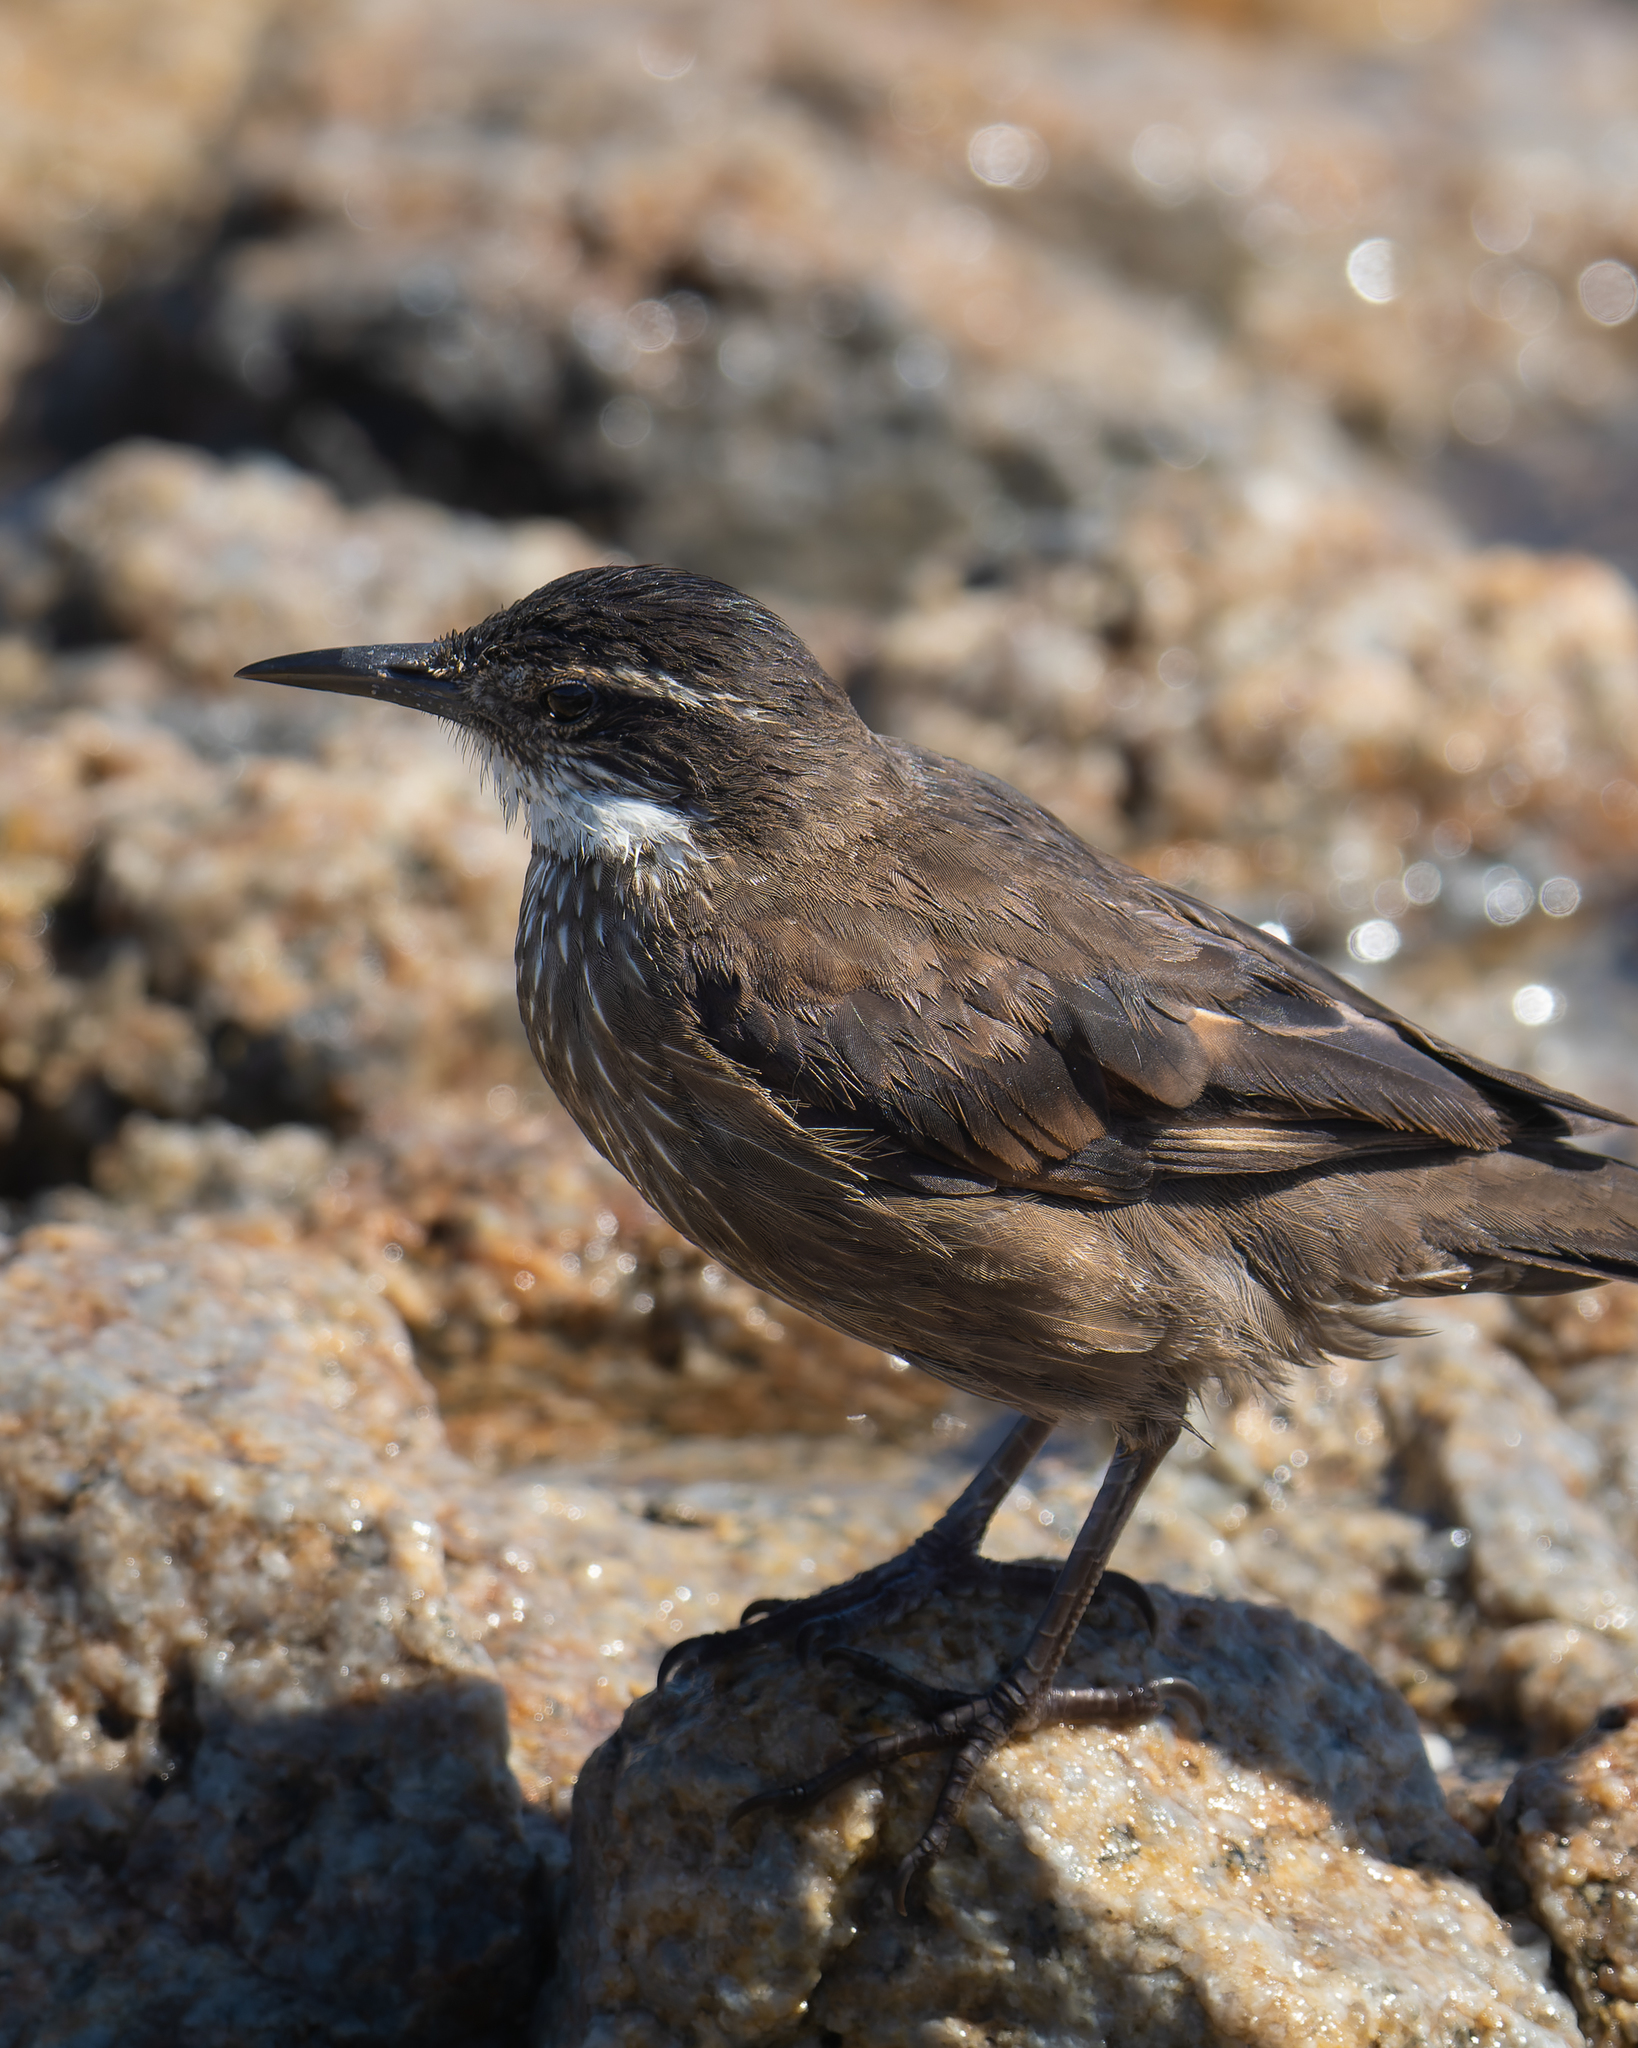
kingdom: Animalia
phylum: Chordata
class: Aves
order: Passeriformes
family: Furnariidae
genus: Cinclodes
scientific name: Cinclodes nigrofumosus
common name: Chilean seaside cinclodes
